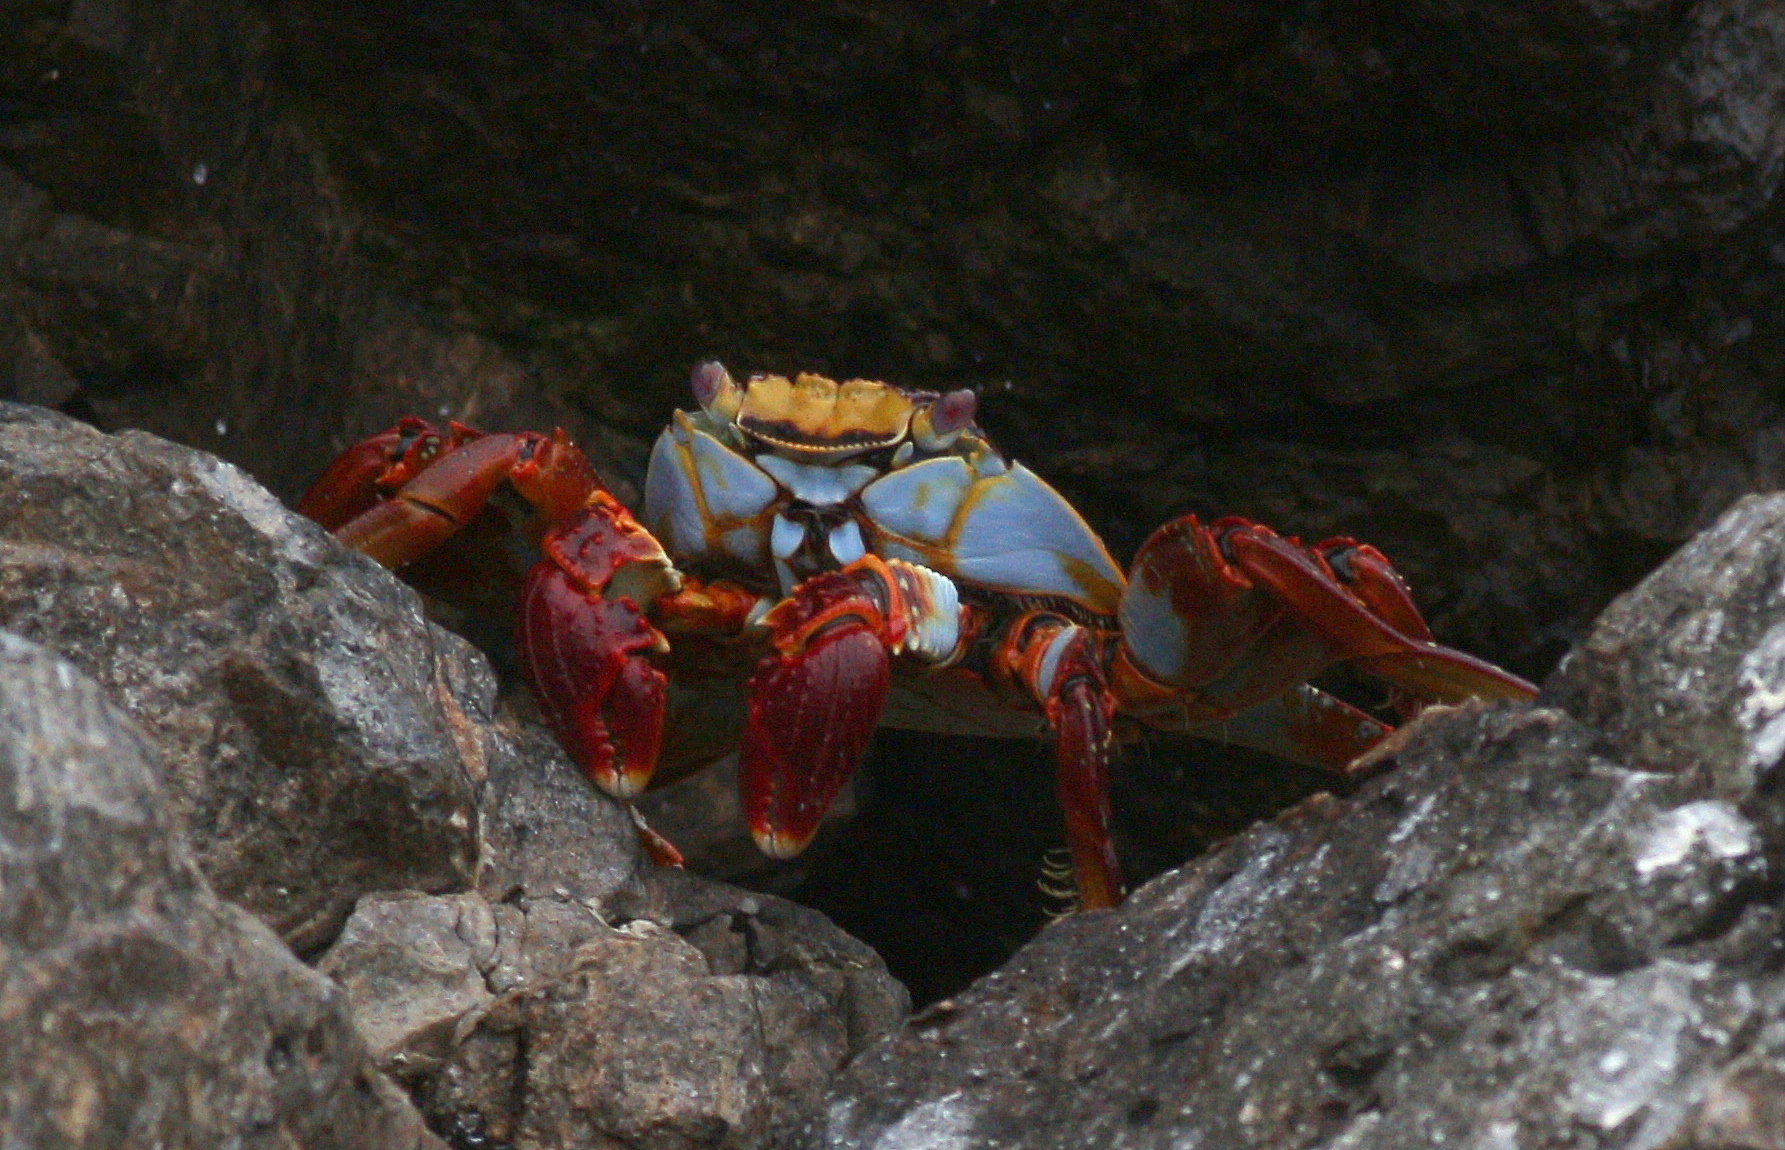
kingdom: Animalia
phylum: Arthropoda
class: Malacostraca
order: Decapoda
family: Grapsidae
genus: Grapsus
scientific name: Grapsus grapsus
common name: Sally lightfoot
